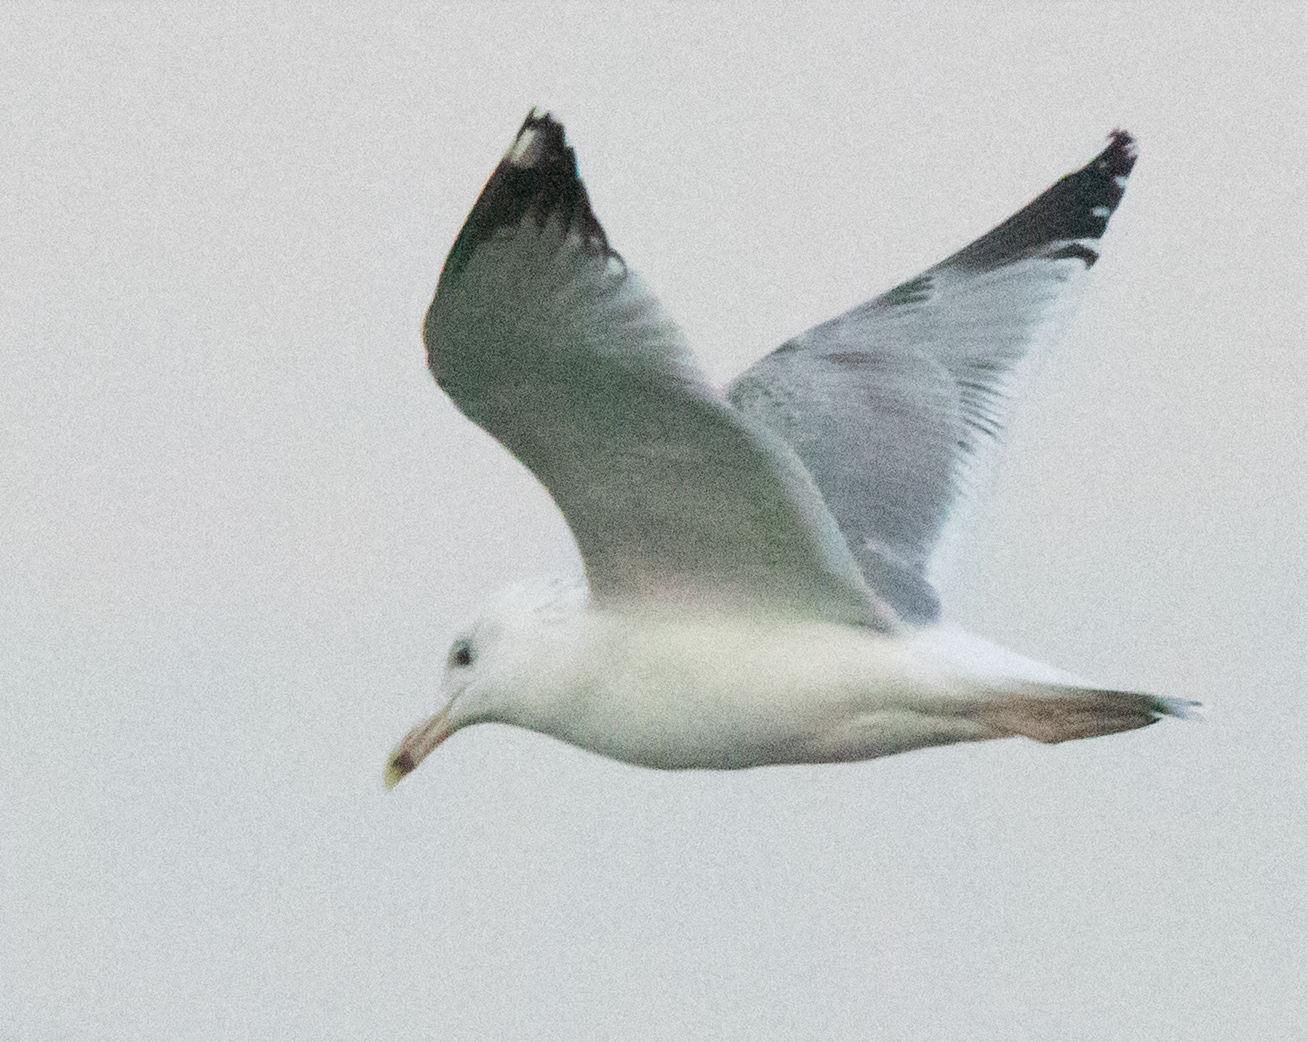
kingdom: Animalia
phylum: Chordata
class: Aves
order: Charadriiformes
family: Laridae
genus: Larus
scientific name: Larus cachinnans
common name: Caspian gull
